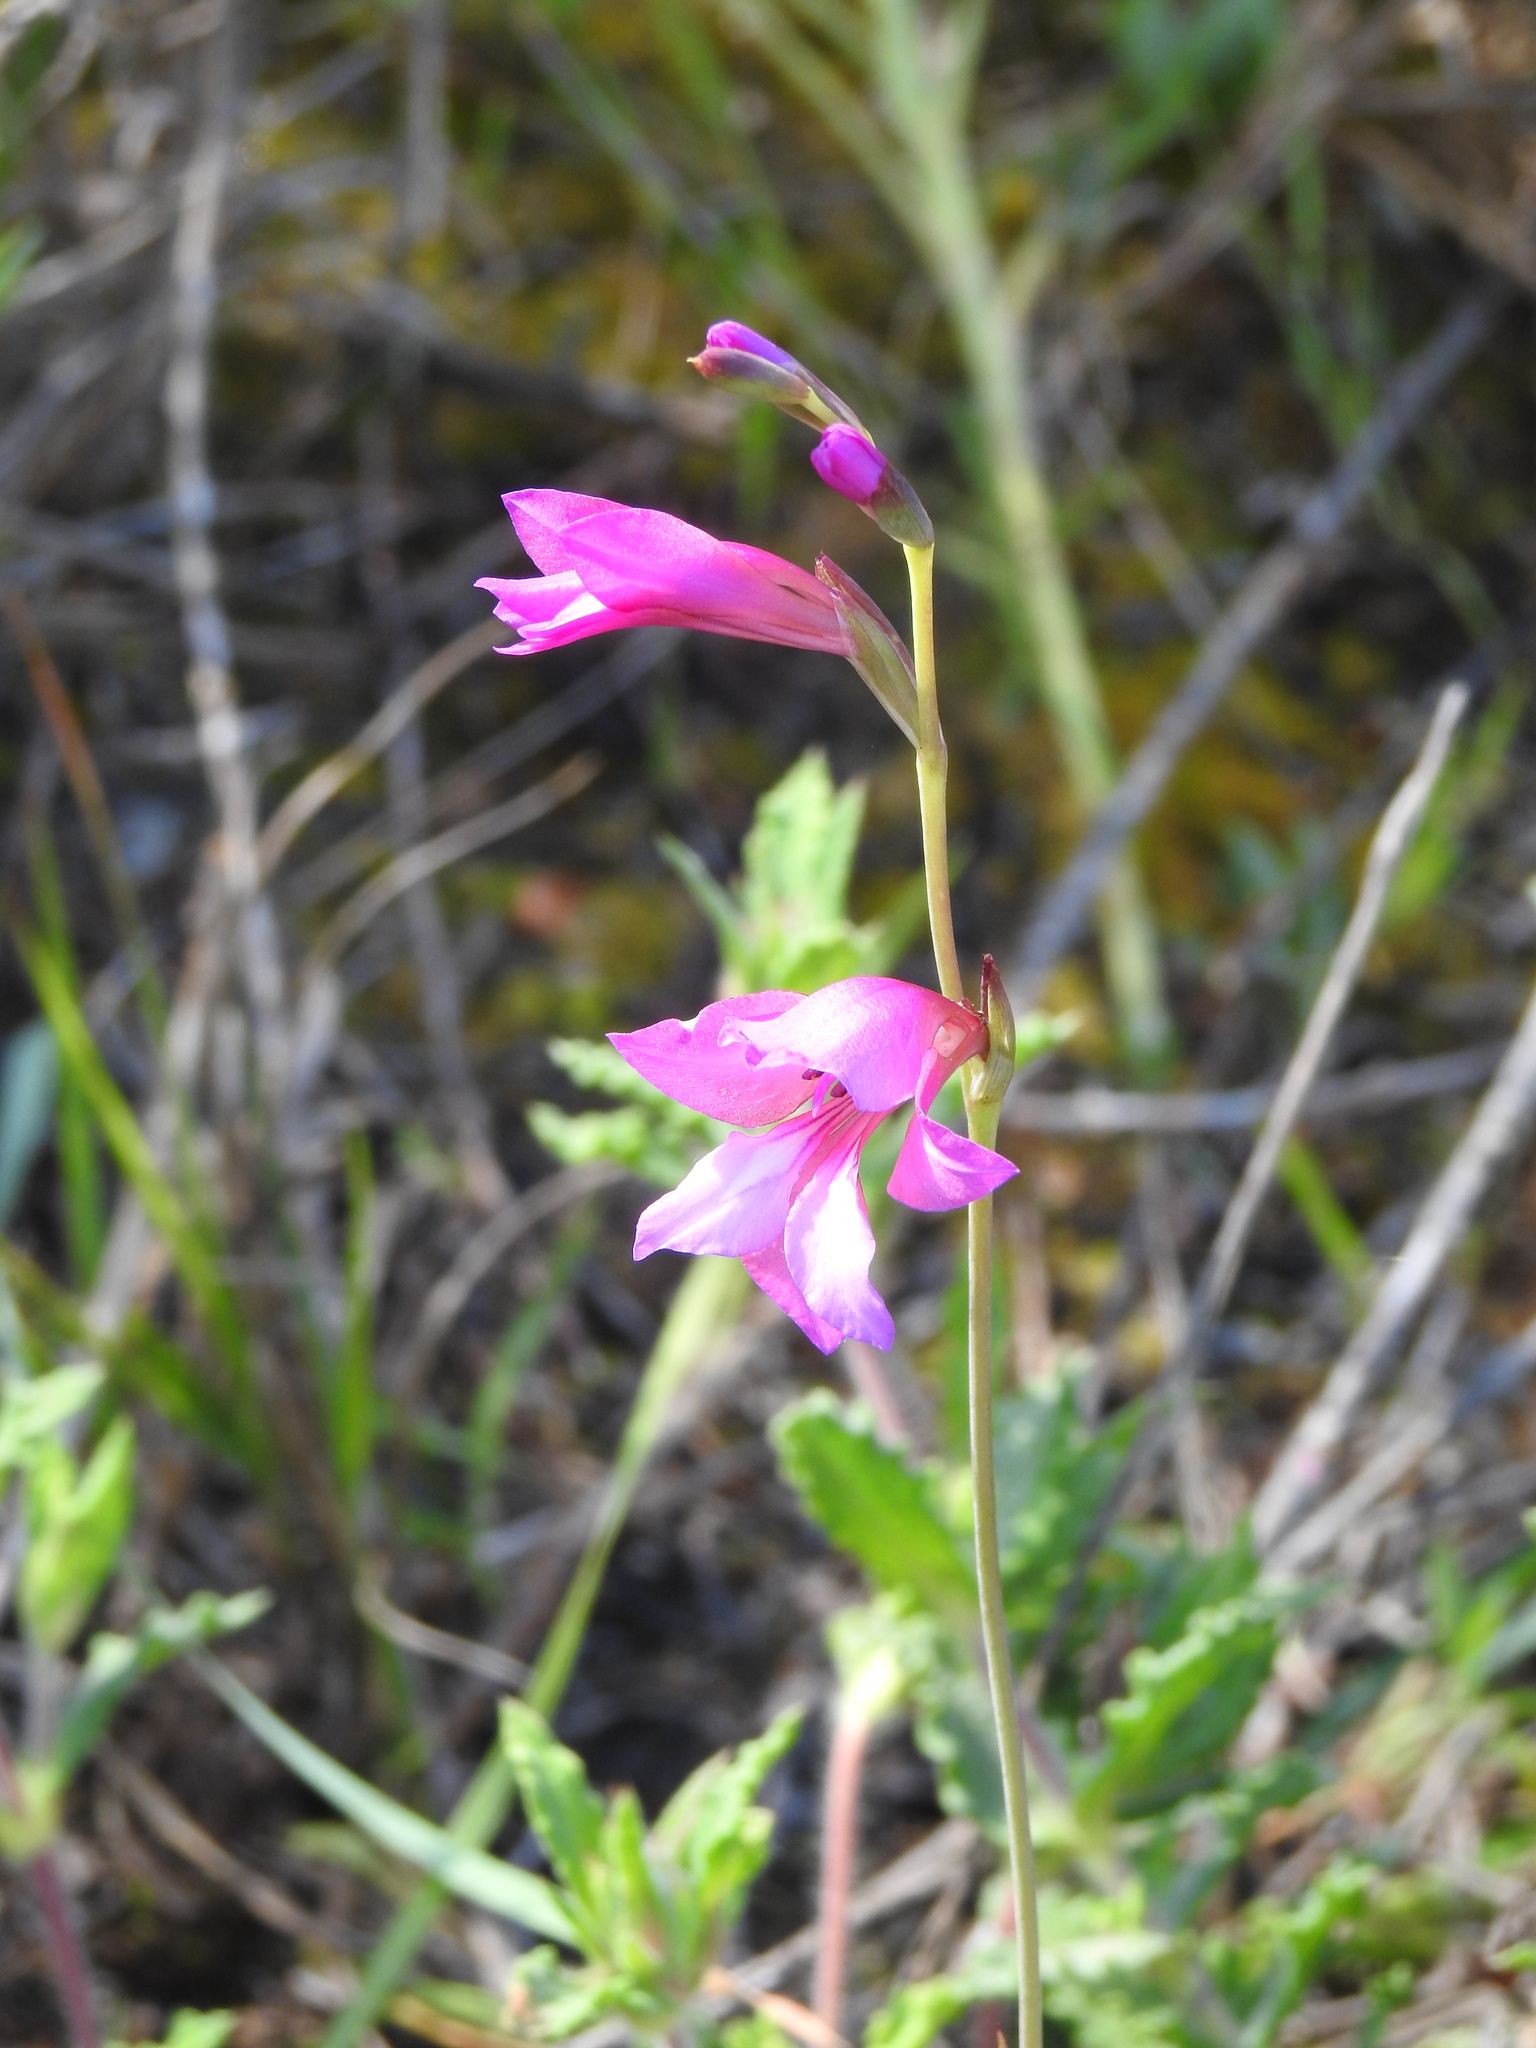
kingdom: Plantae
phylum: Tracheophyta
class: Liliopsida
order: Asparagales
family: Iridaceae
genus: Gladiolus
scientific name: Gladiolus illyricus
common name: Wild gladiolus
